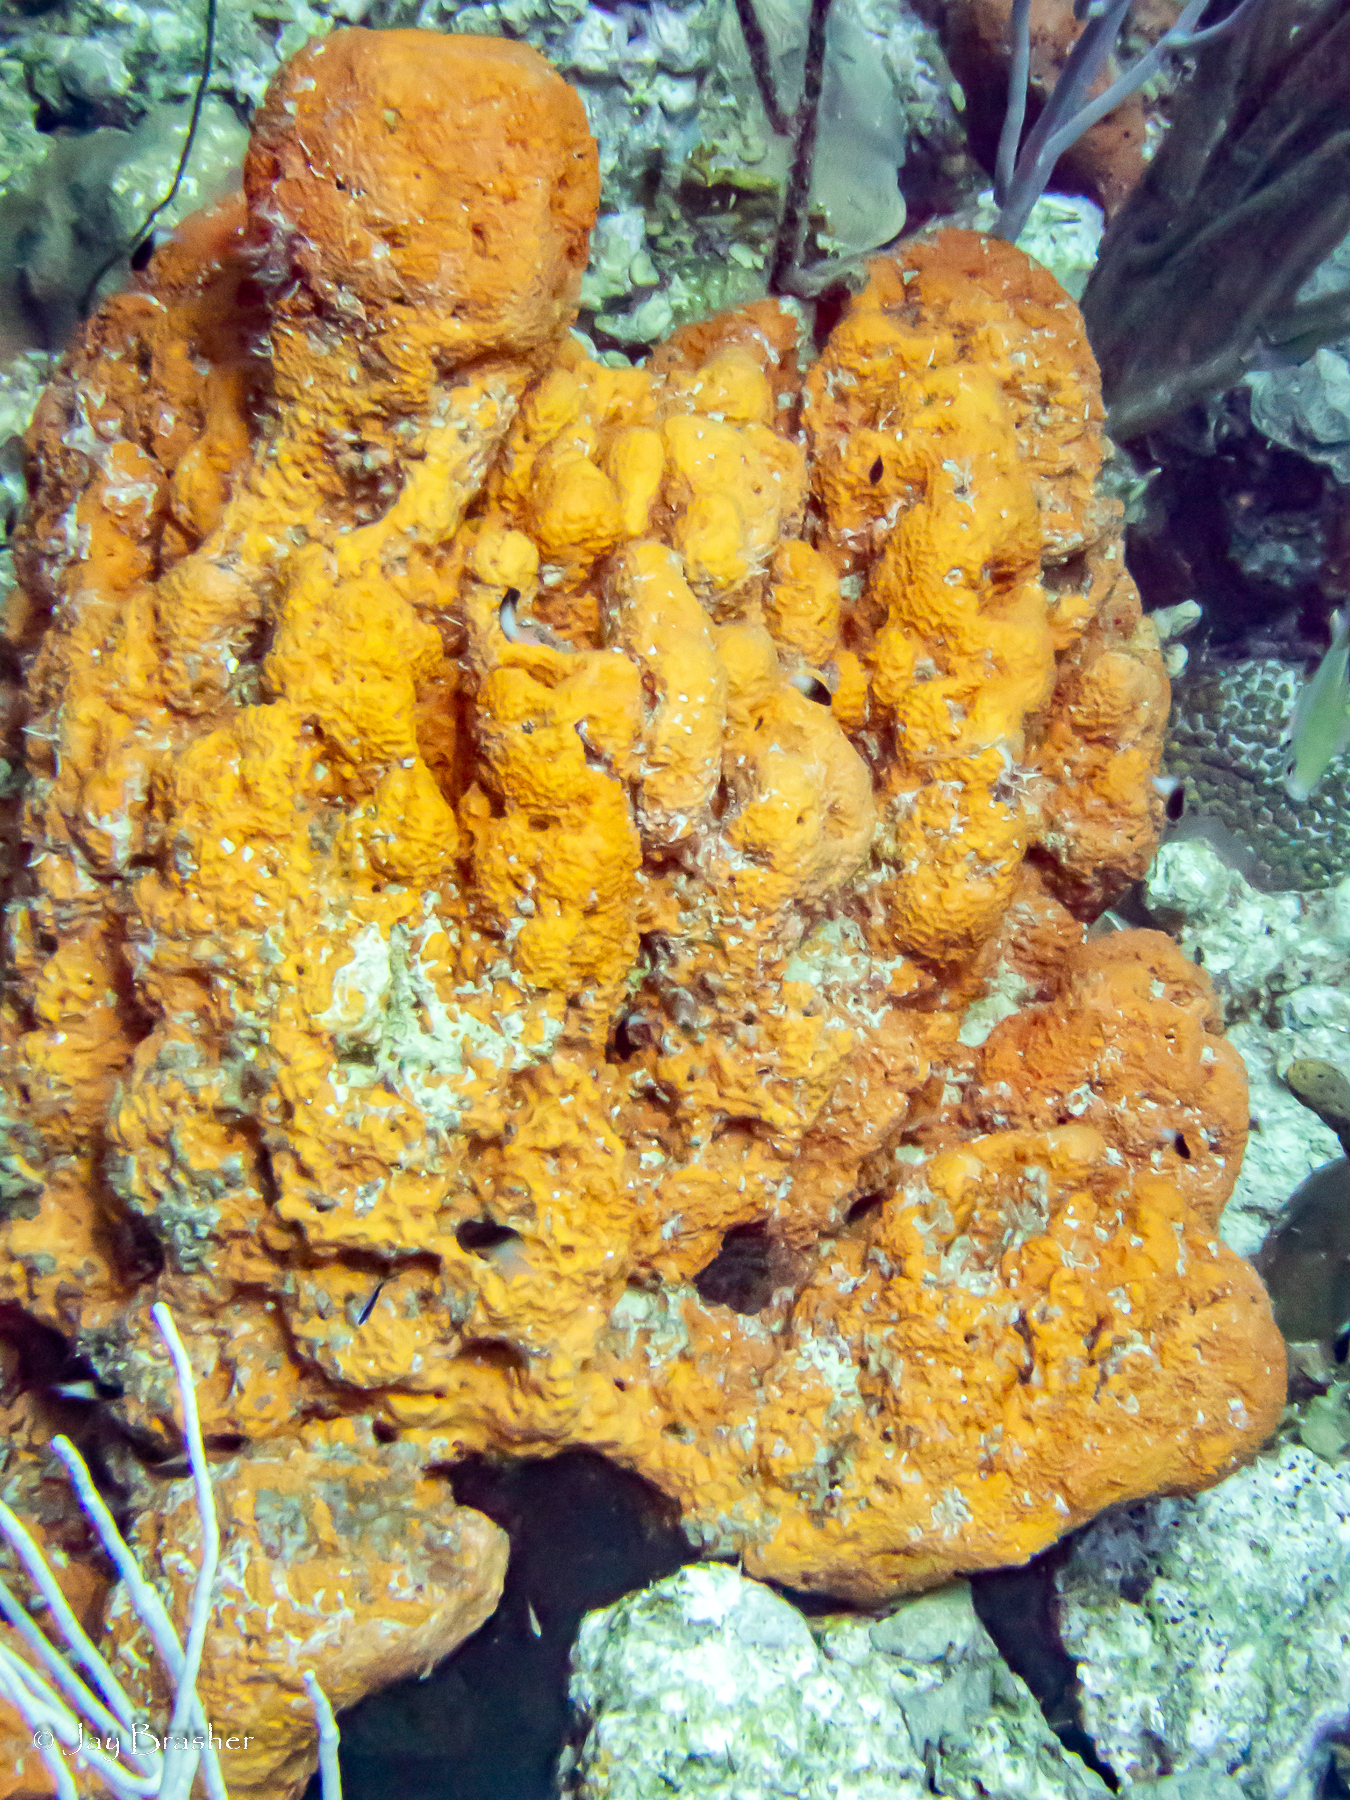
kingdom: Animalia
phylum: Porifera
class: Demospongiae
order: Agelasida
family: Agelasidae
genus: Agelas
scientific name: Agelas citrina
